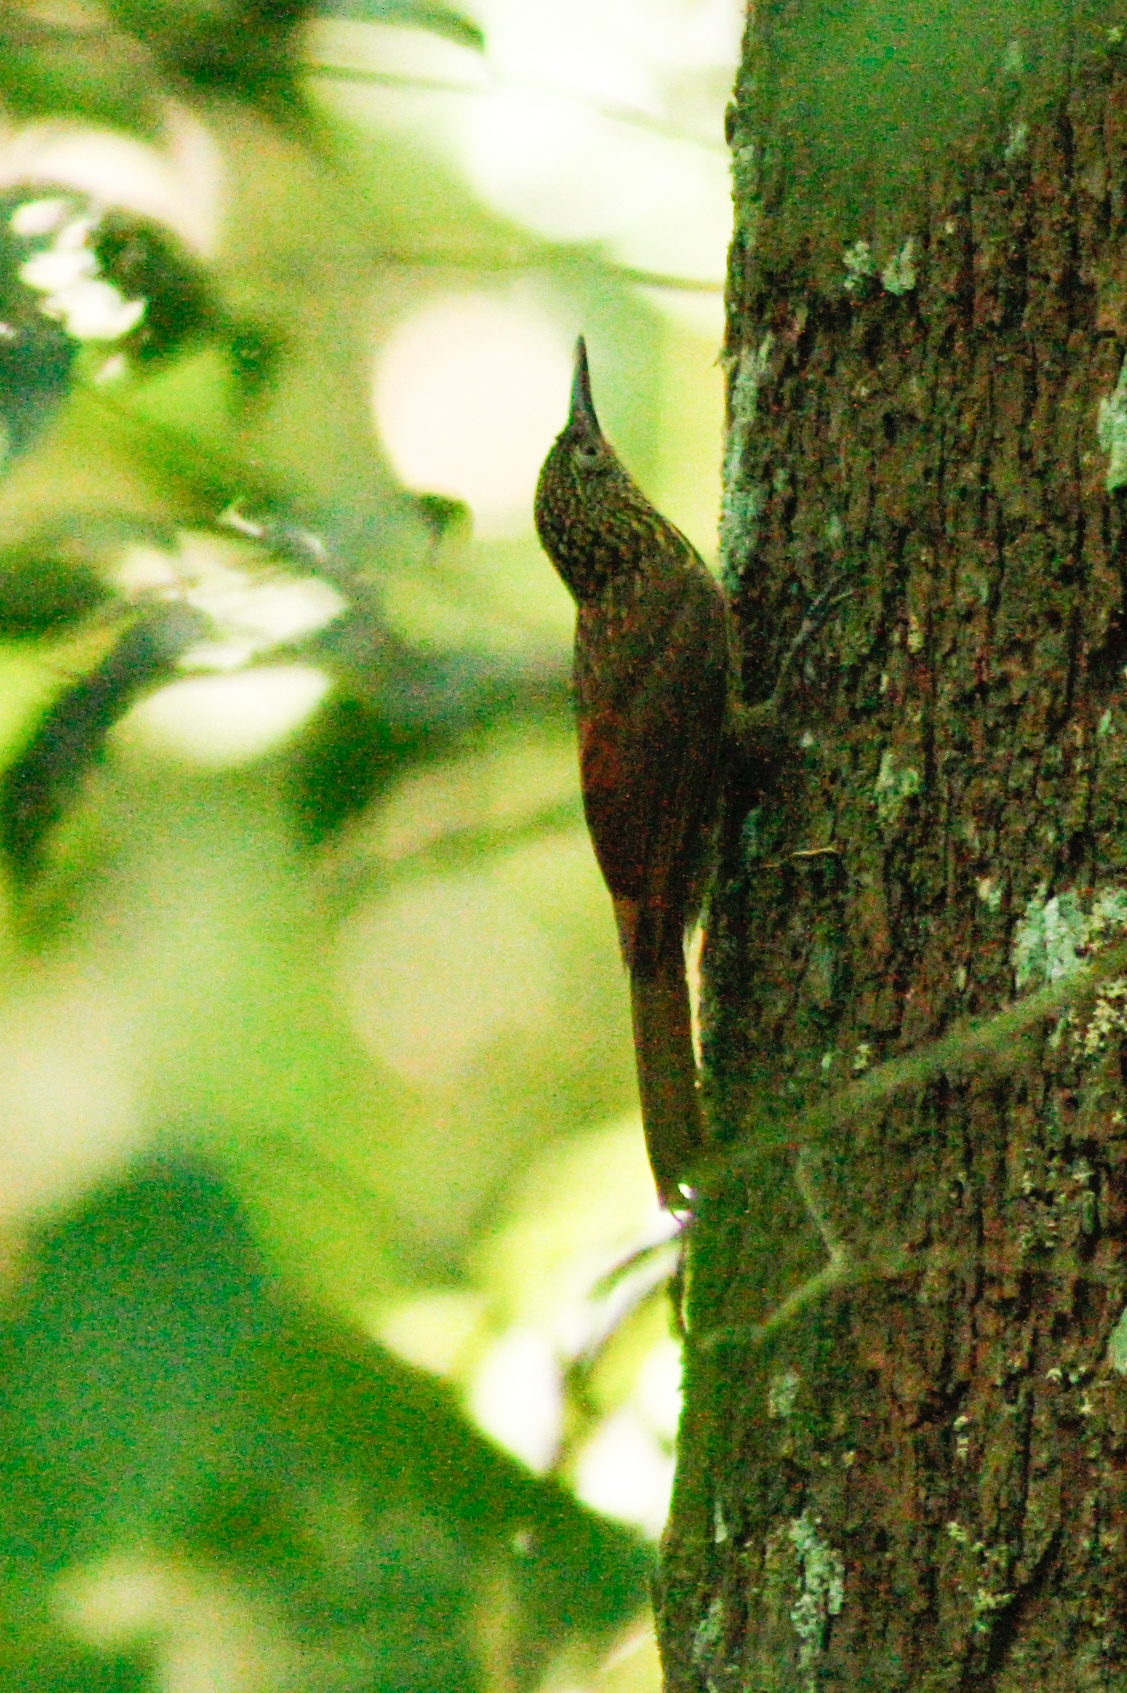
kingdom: Animalia
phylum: Chordata
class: Aves
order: Passeriformes
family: Furnariidae
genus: Xiphorhynchus
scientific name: Xiphorhynchus pardalotus
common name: Chestnut-rumped woodcreeper
